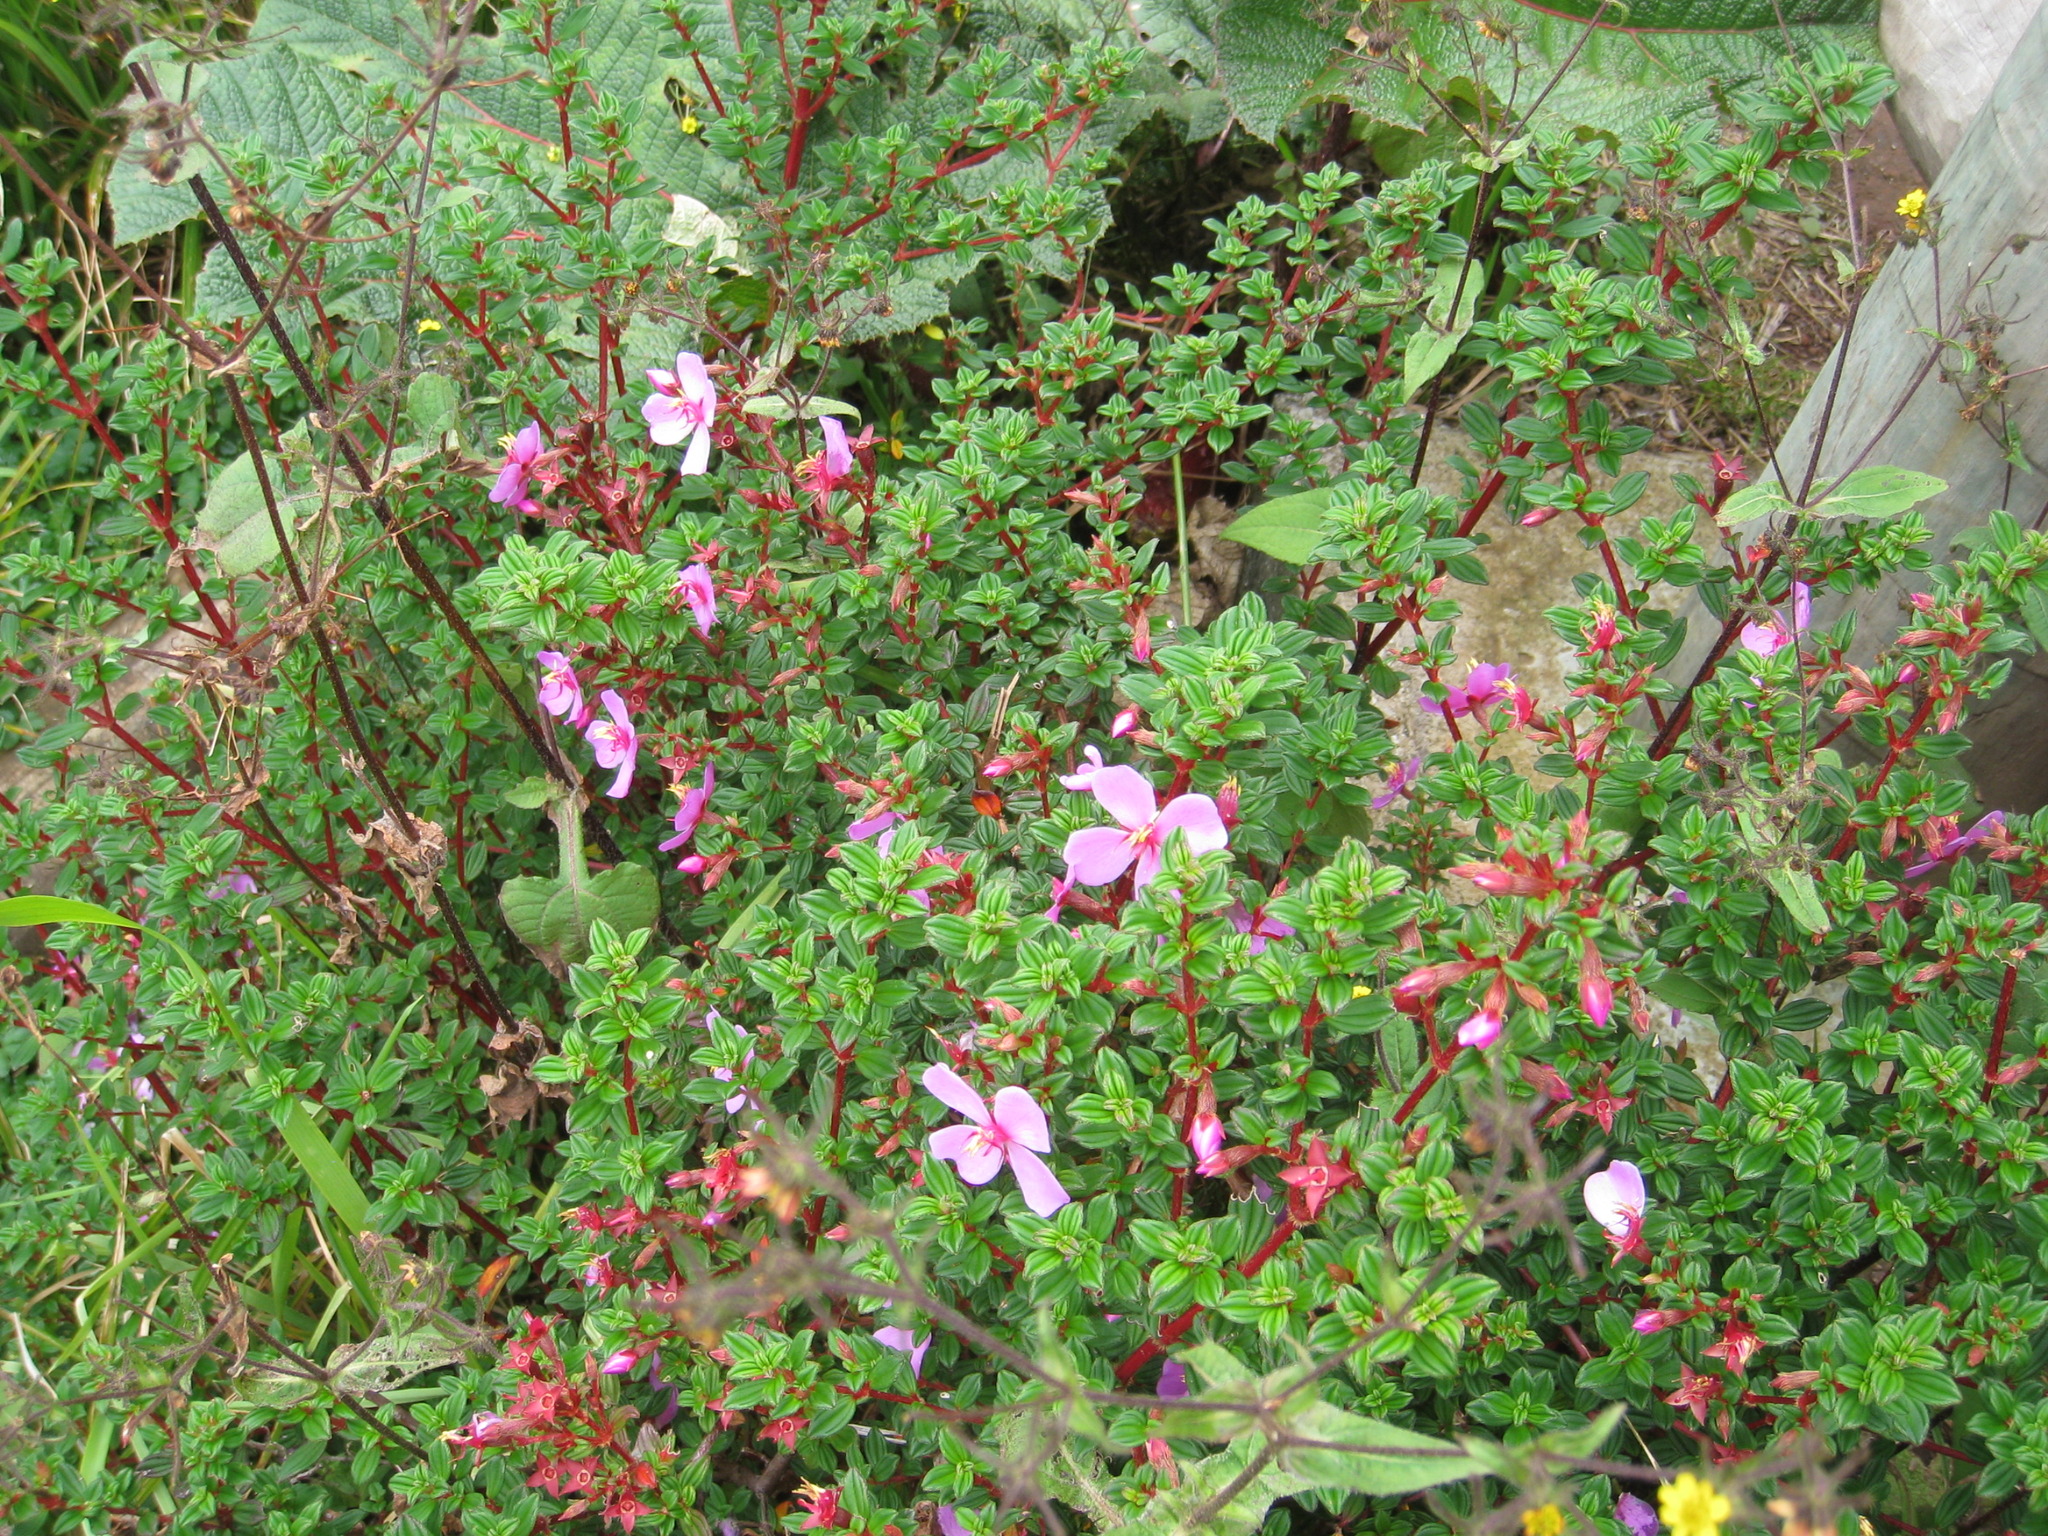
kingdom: Plantae
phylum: Tracheophyta
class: Magnoliopsida
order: Myrtales
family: Melastomataceae
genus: Monochaetum
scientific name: Monochaetum vulcanicum
